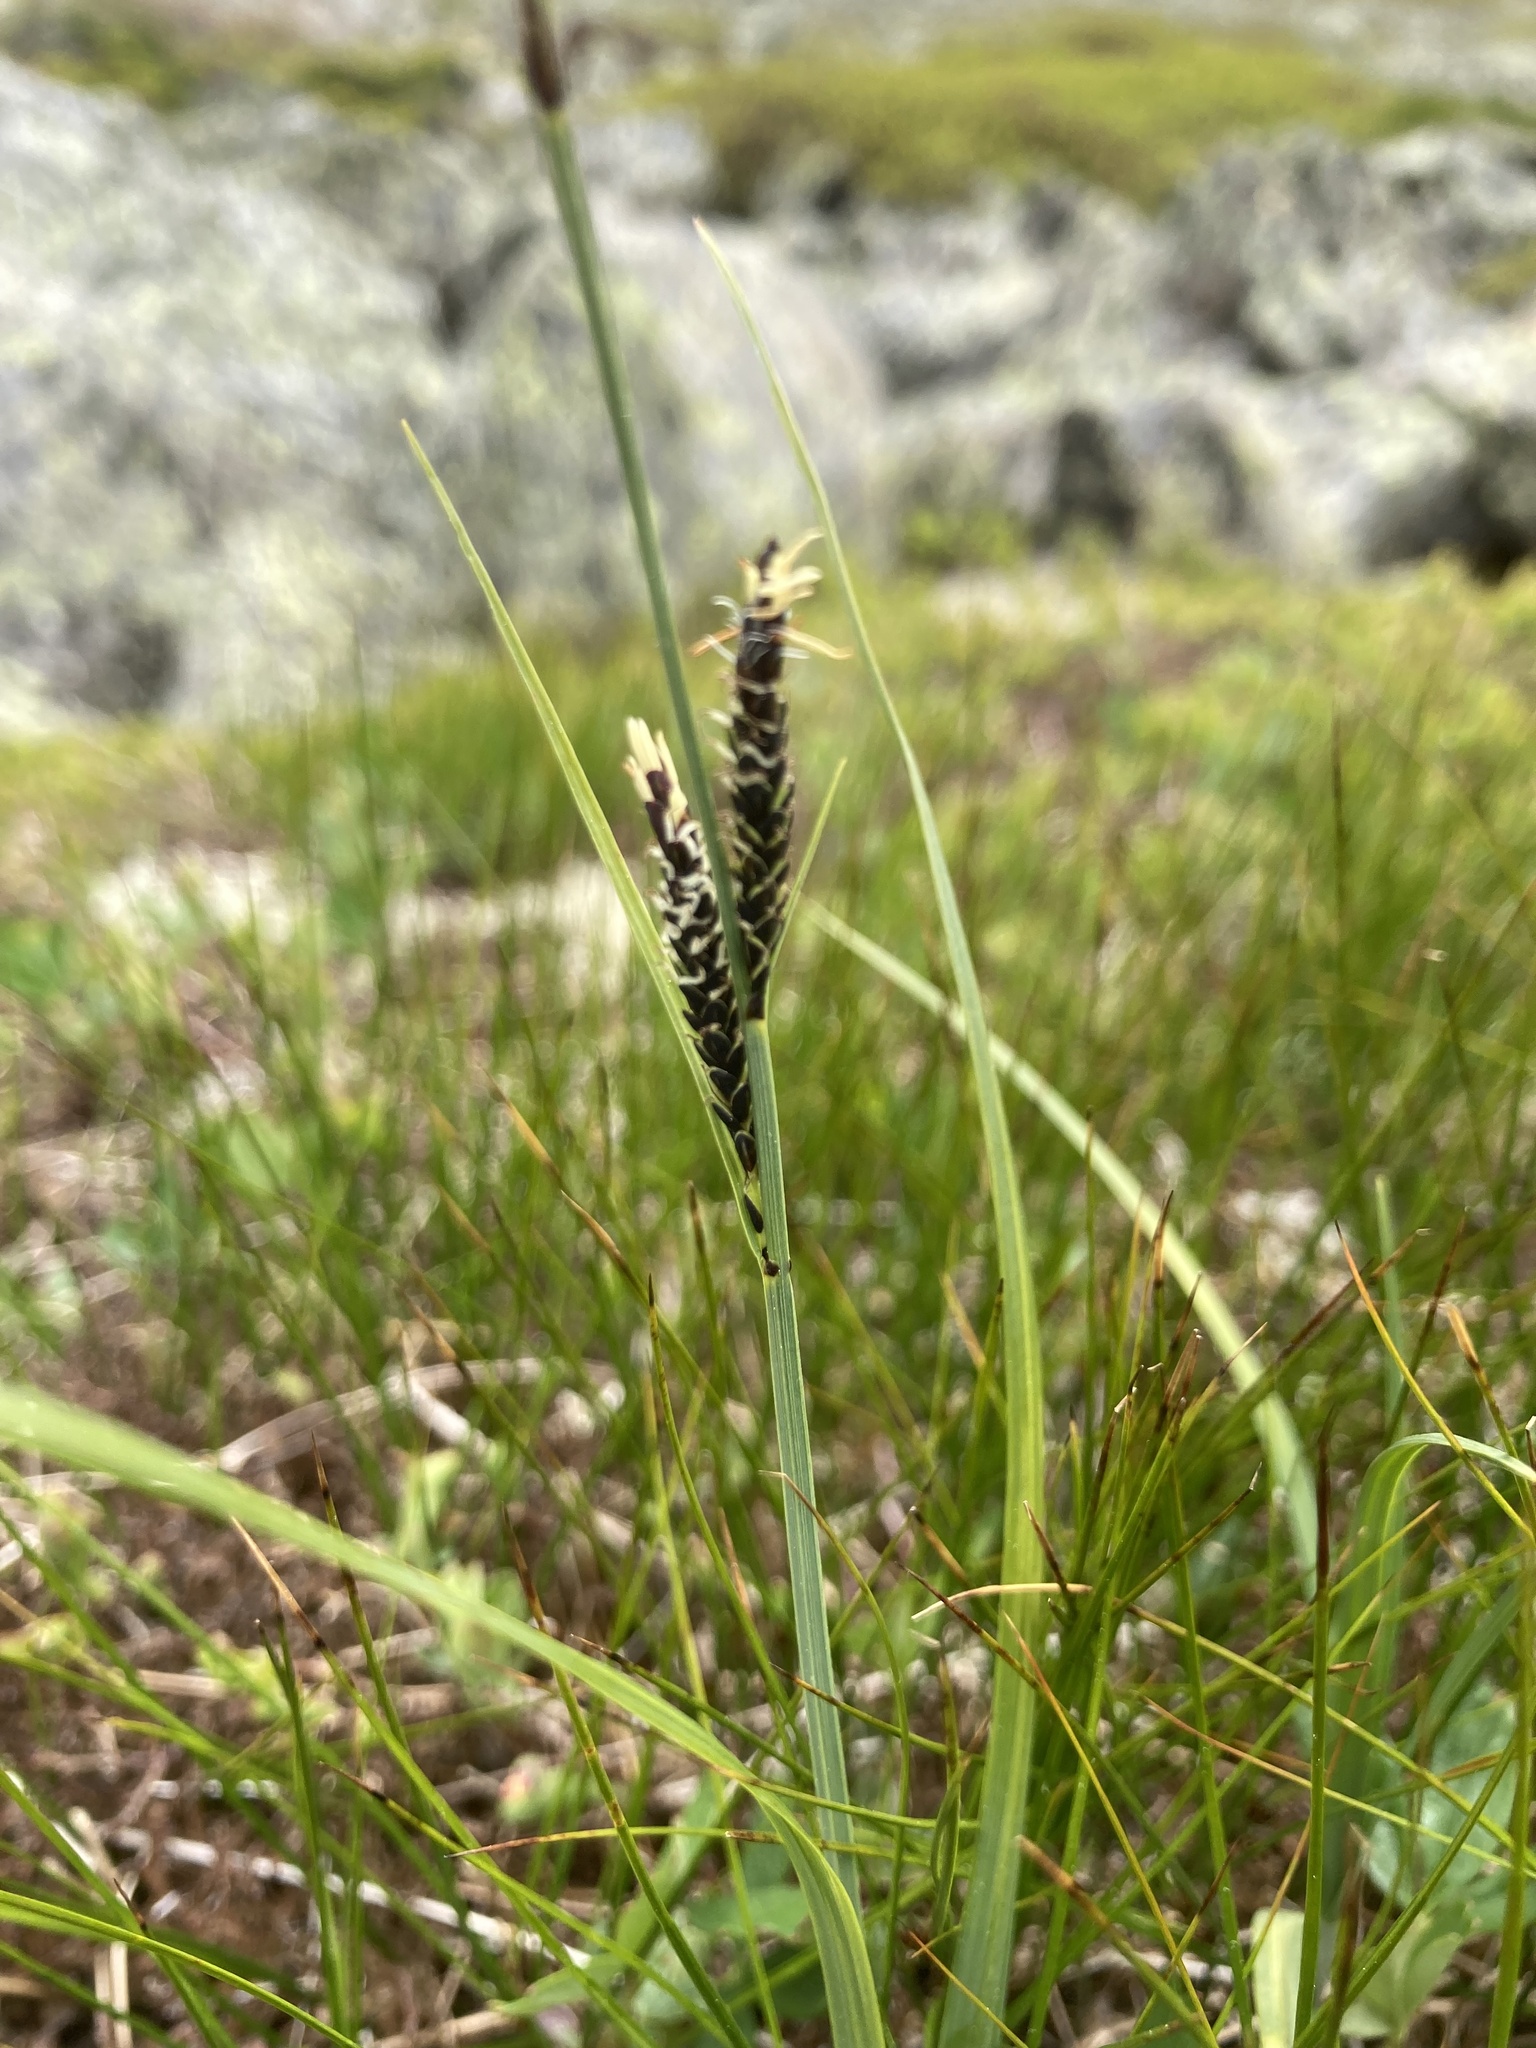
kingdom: Plantae
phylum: Tracheophyta
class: Liliopsida
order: Poales
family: Cyperaceae
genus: Carex
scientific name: Carex bigelowii
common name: Stiff sedge
